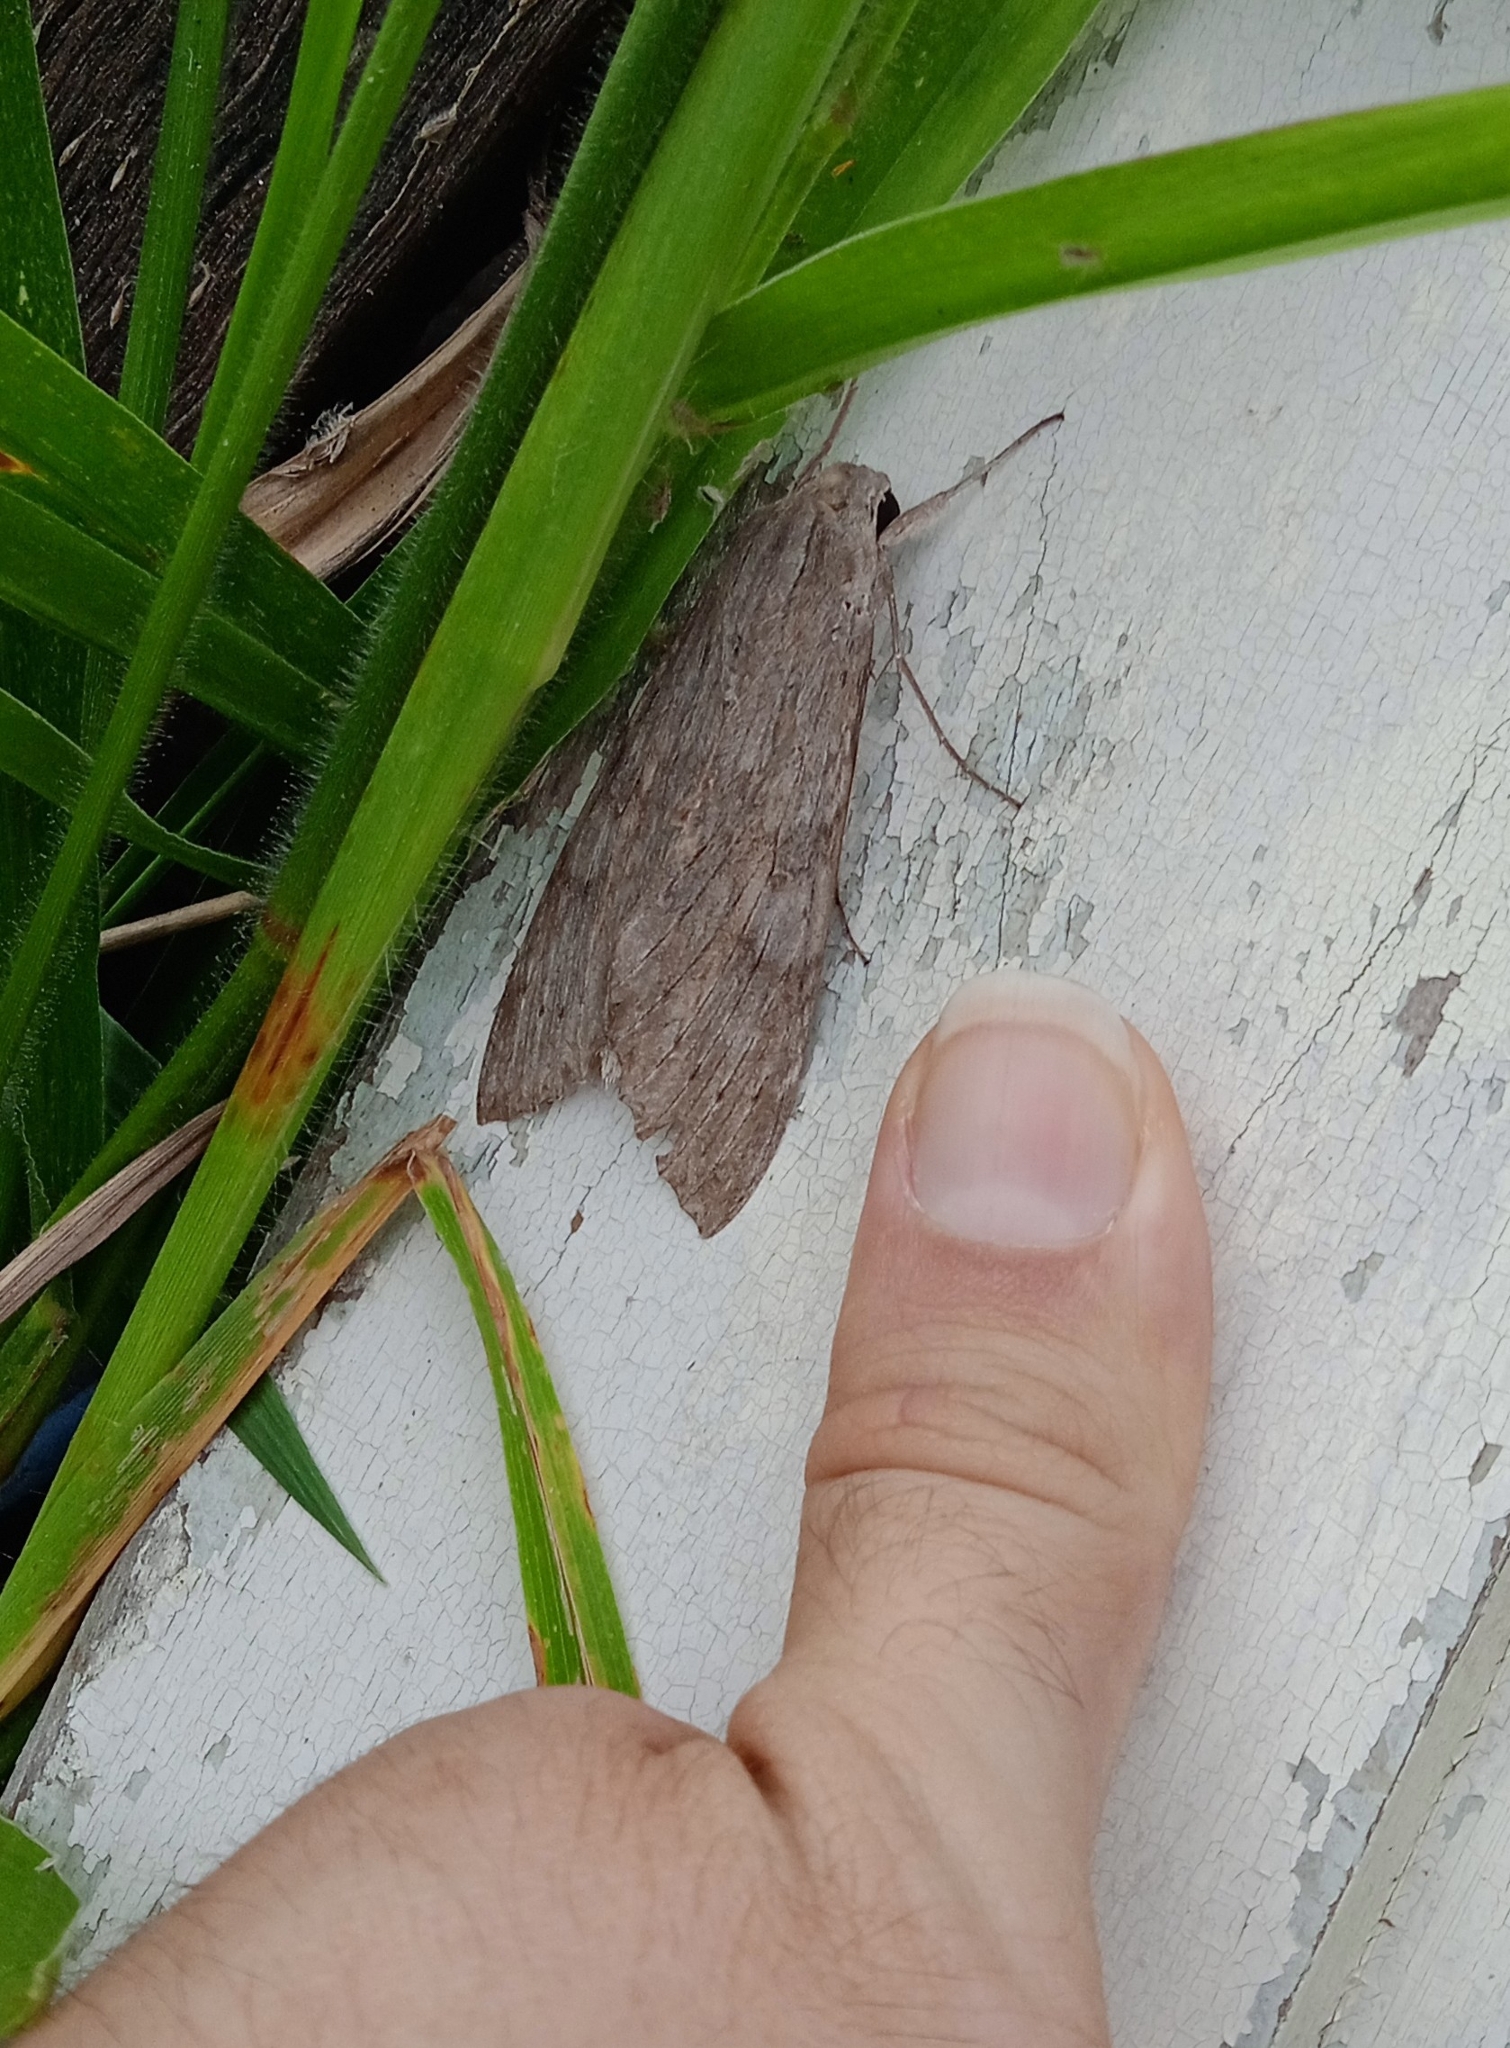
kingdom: Animalia
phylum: Arthropoda
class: Insecta
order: Lepidoptera
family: Sphingidae
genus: Erinnyis
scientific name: Erinnyis ello
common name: Ello sphinx
